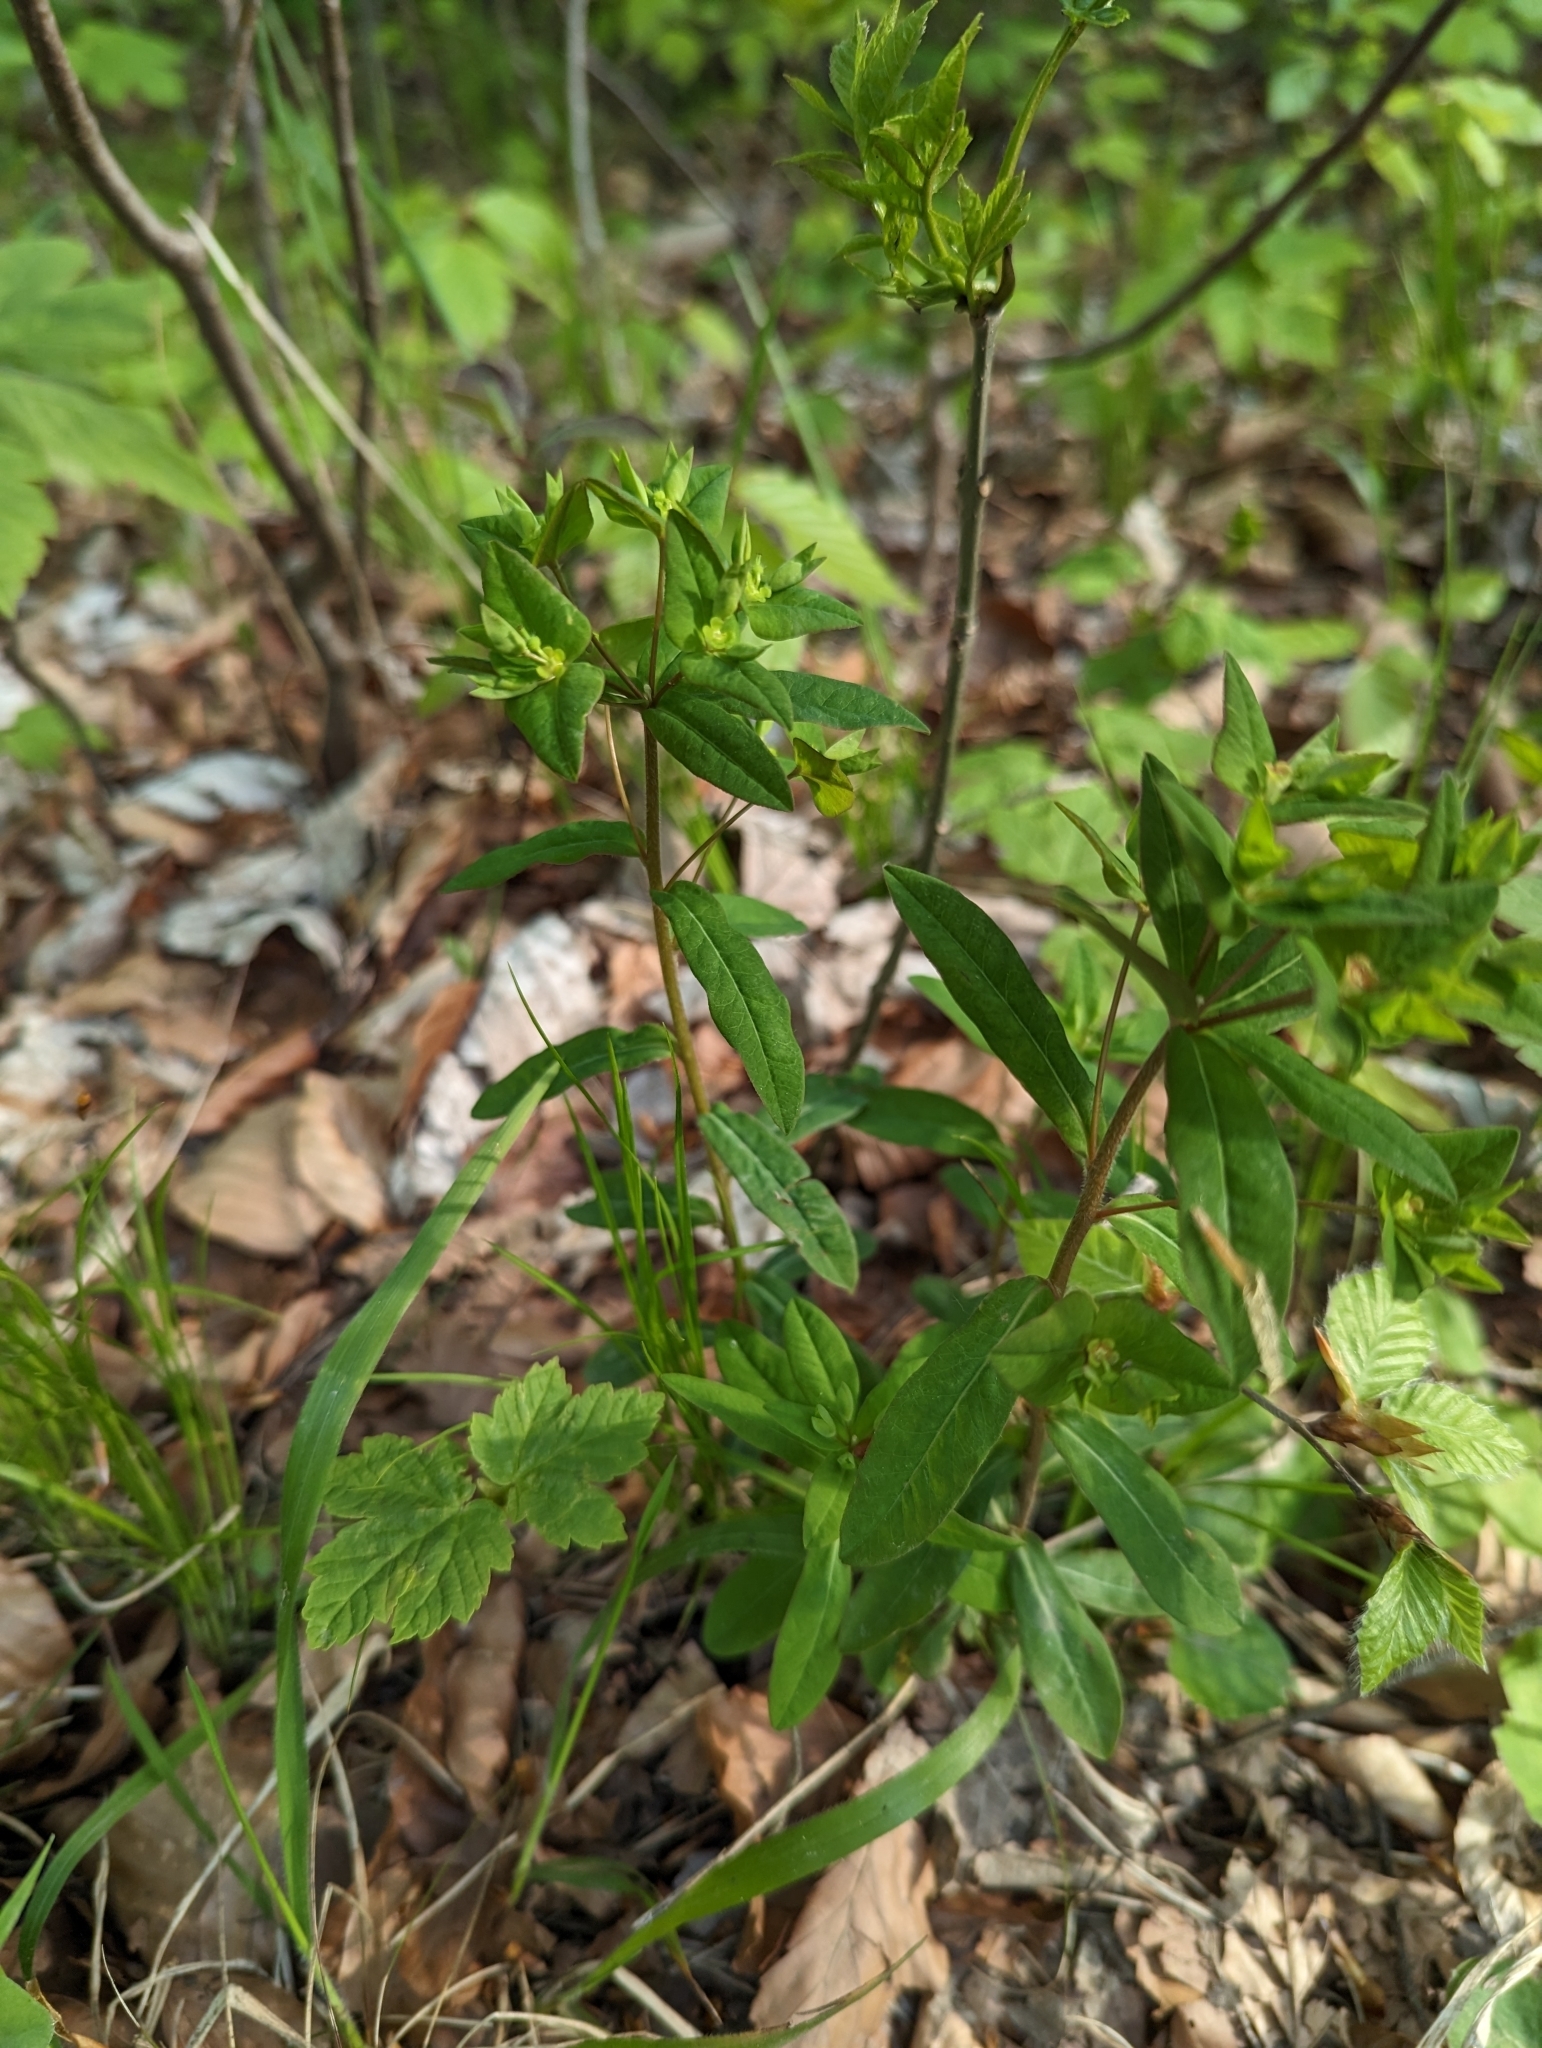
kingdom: Plantae
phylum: Tracheophyta
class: Magnoliopsida
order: Malpighiales
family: Euphorbiaceae
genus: Euphorbia
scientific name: Euphorbia dulcis
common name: Sweet spurge
